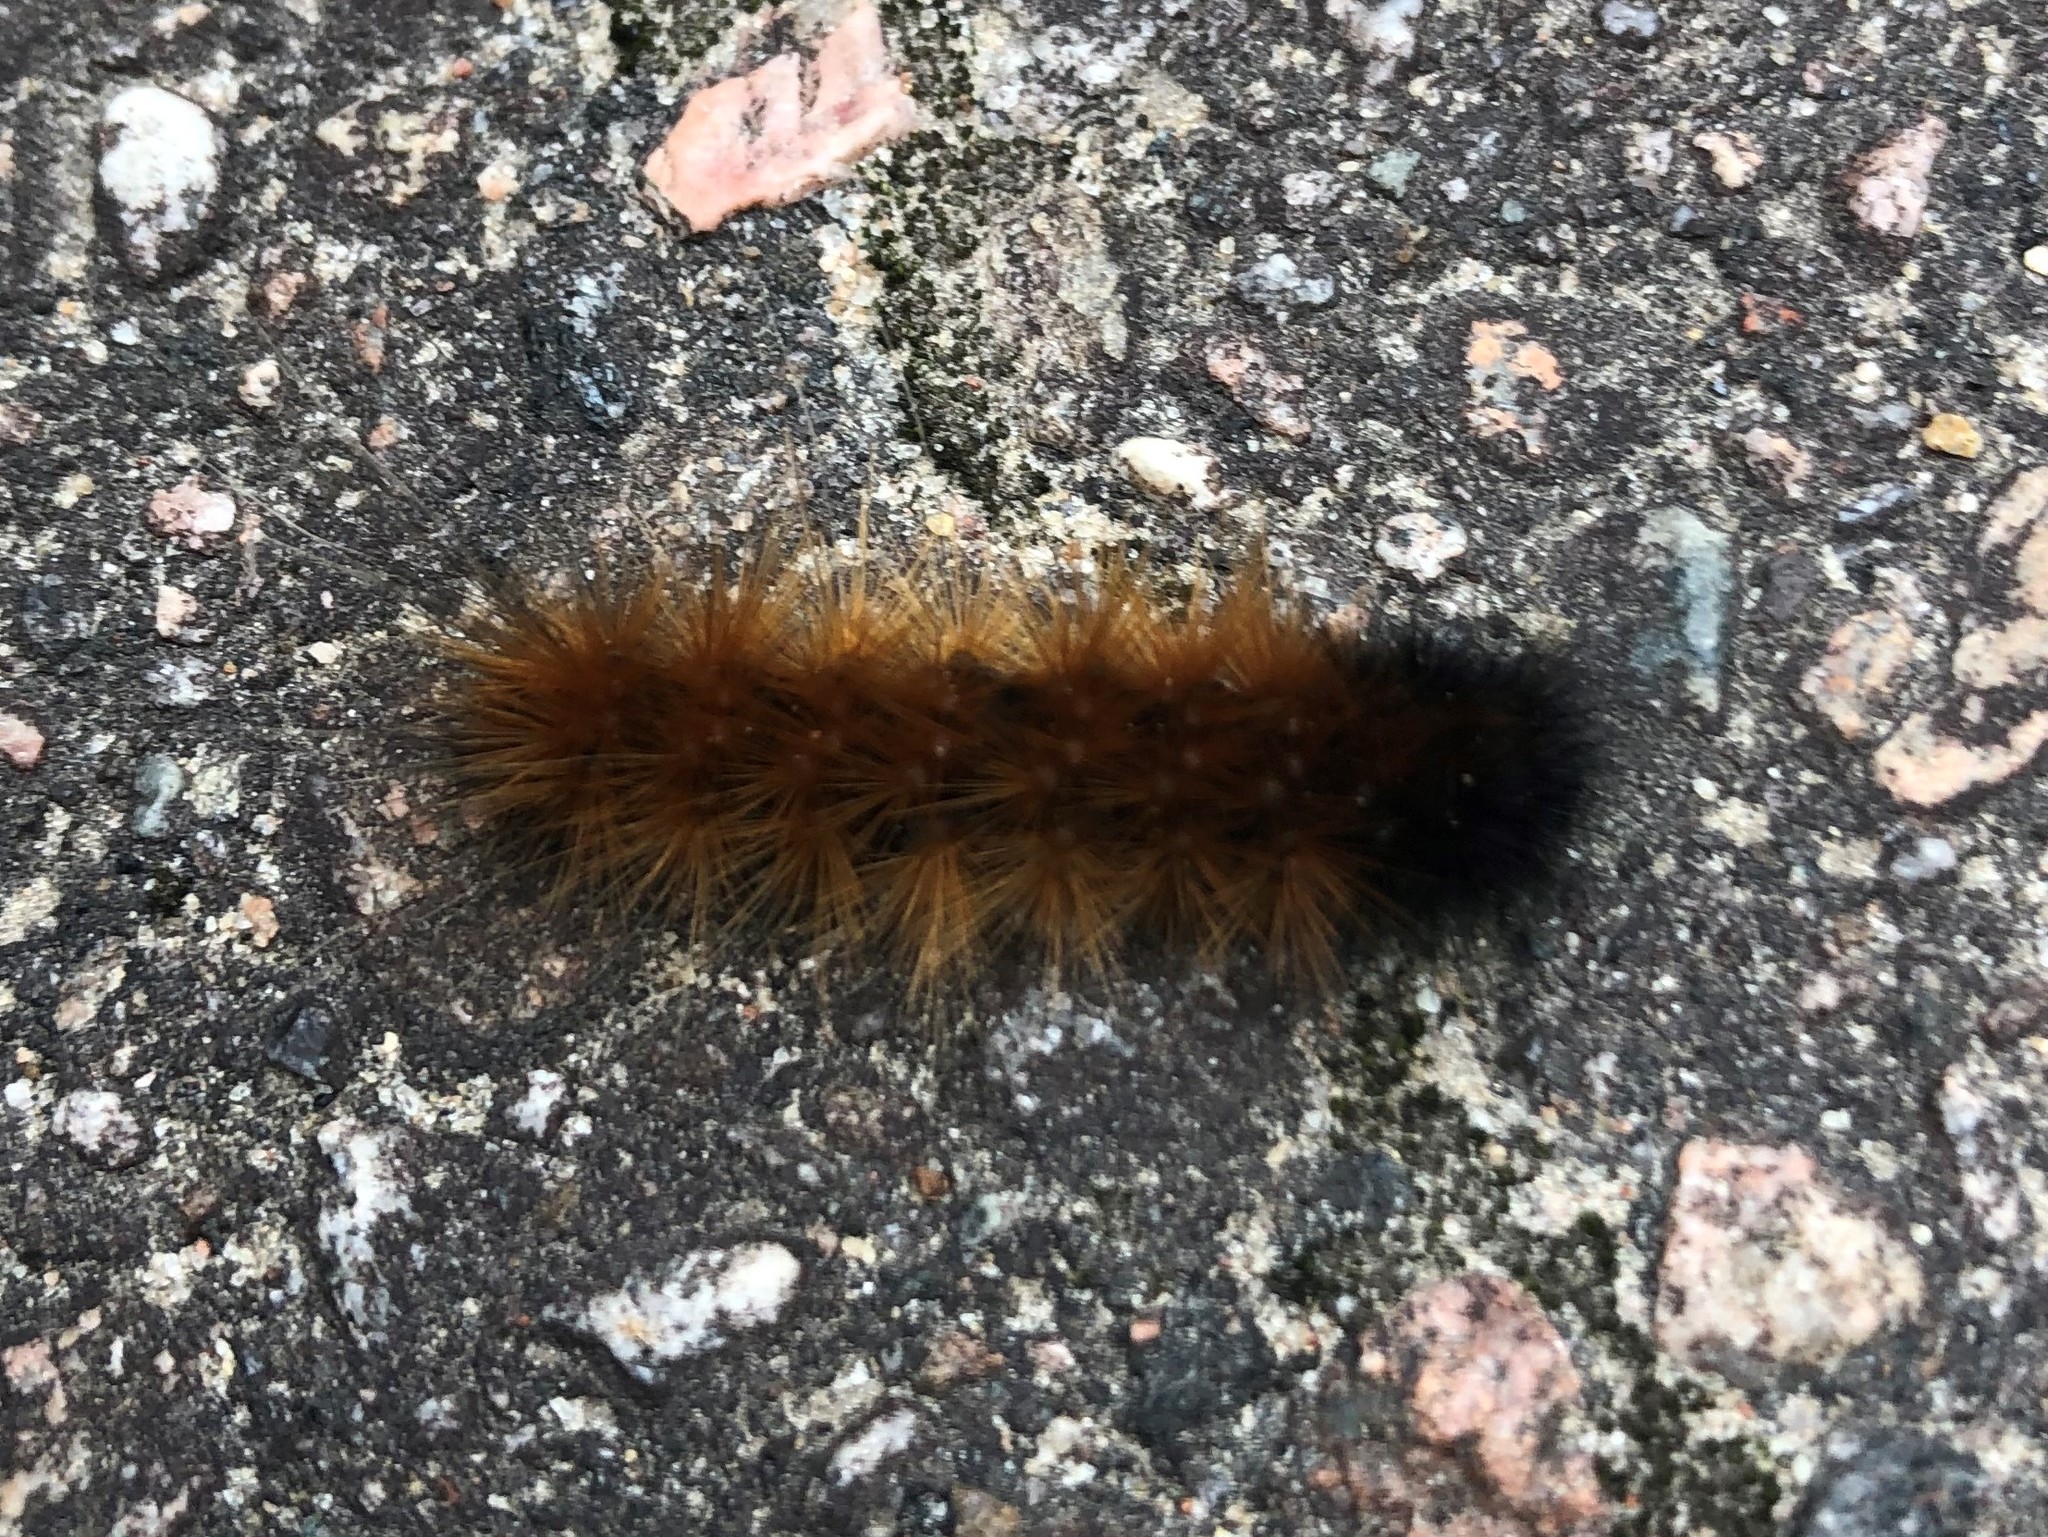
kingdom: Animalia
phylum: Arthropoda
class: Insecta
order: Lepidoptera
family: Erebidae
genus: Spilosoma
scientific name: Spilosoma virginica
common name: Virginia tiger moth
